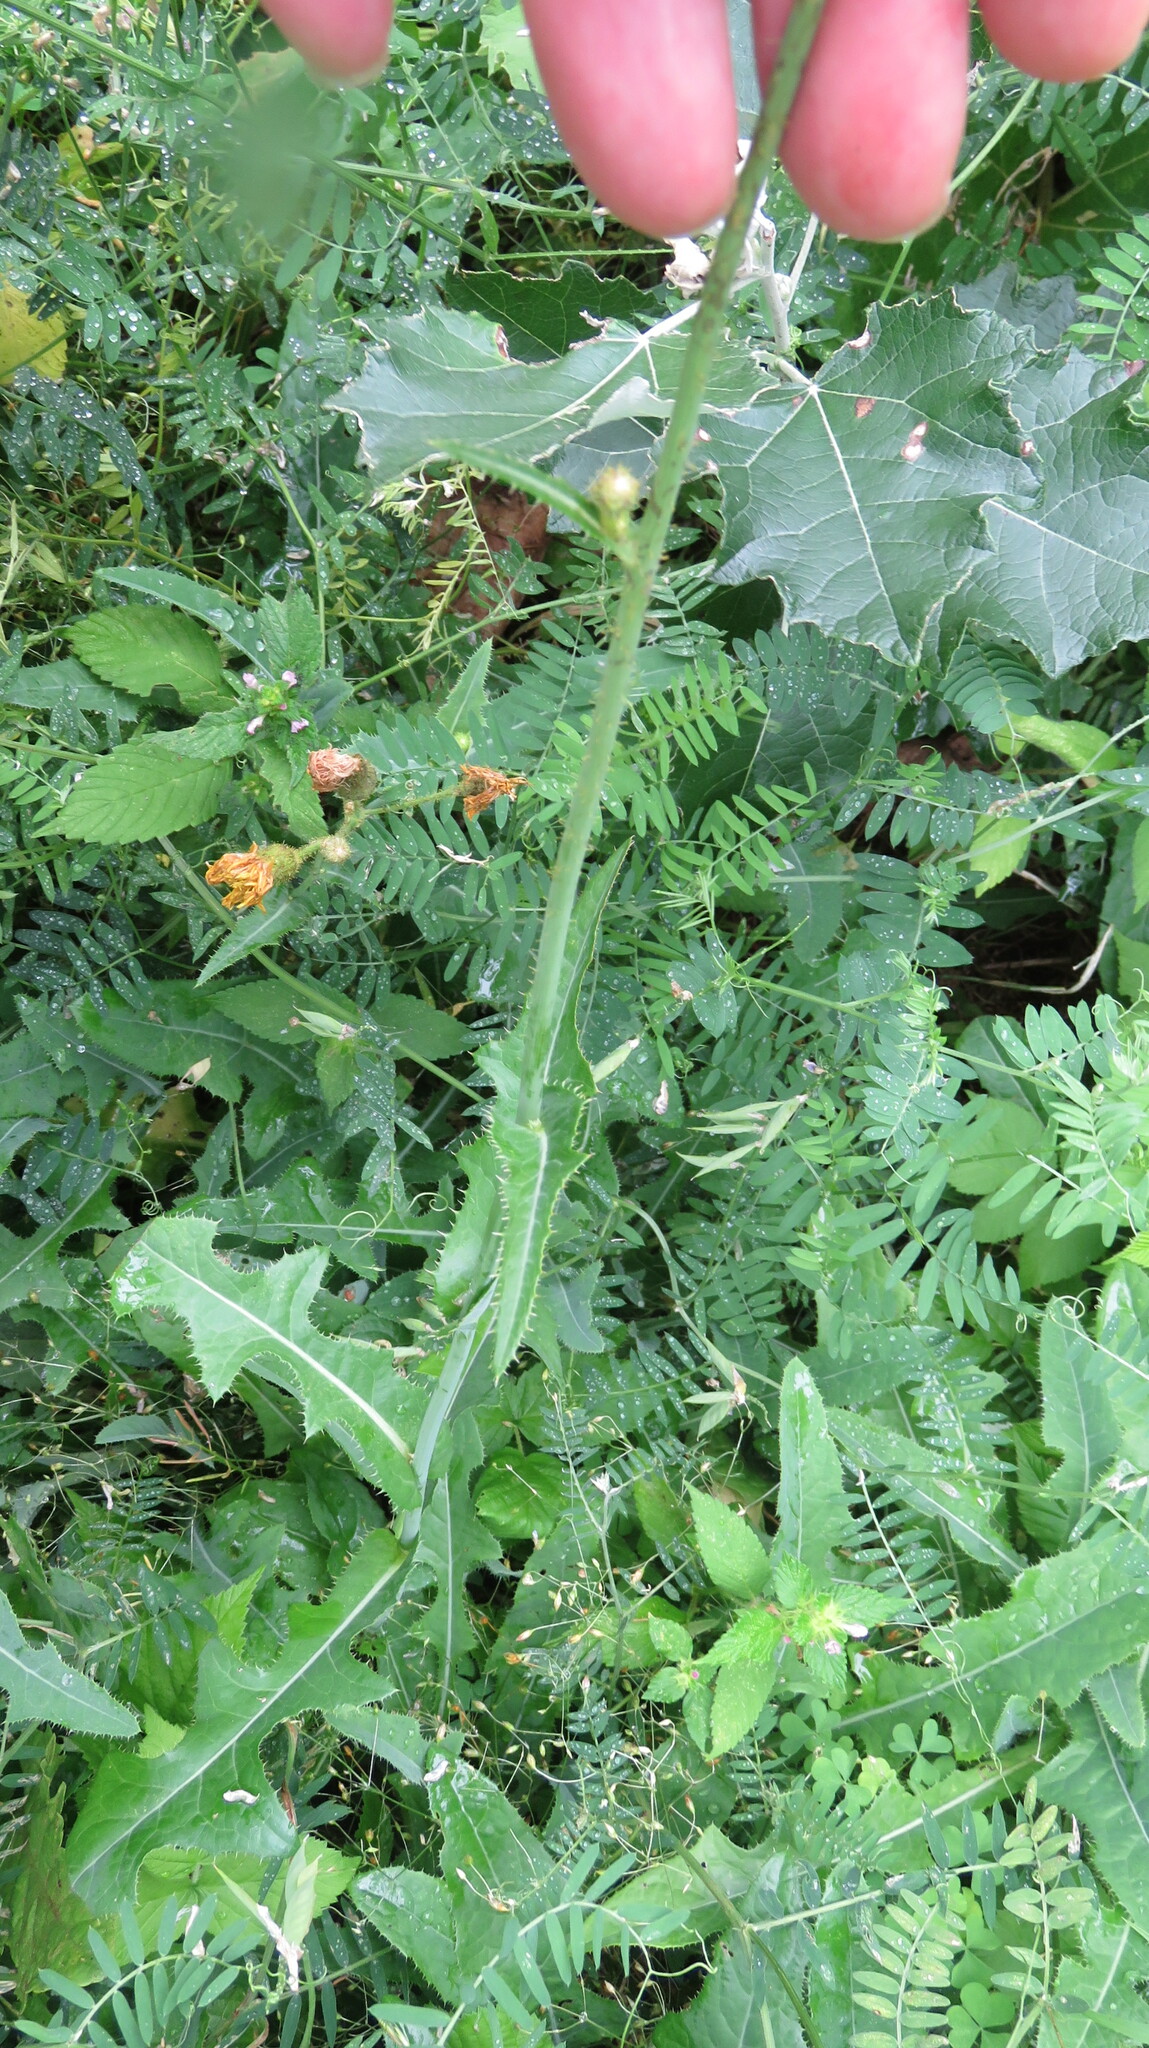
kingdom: Plantae
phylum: Tracheophyta
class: Magnoliopsida
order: Asterales
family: Asteraceae
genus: Sonchus
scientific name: Sonchus arvensis
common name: Perennial sow-thistle
